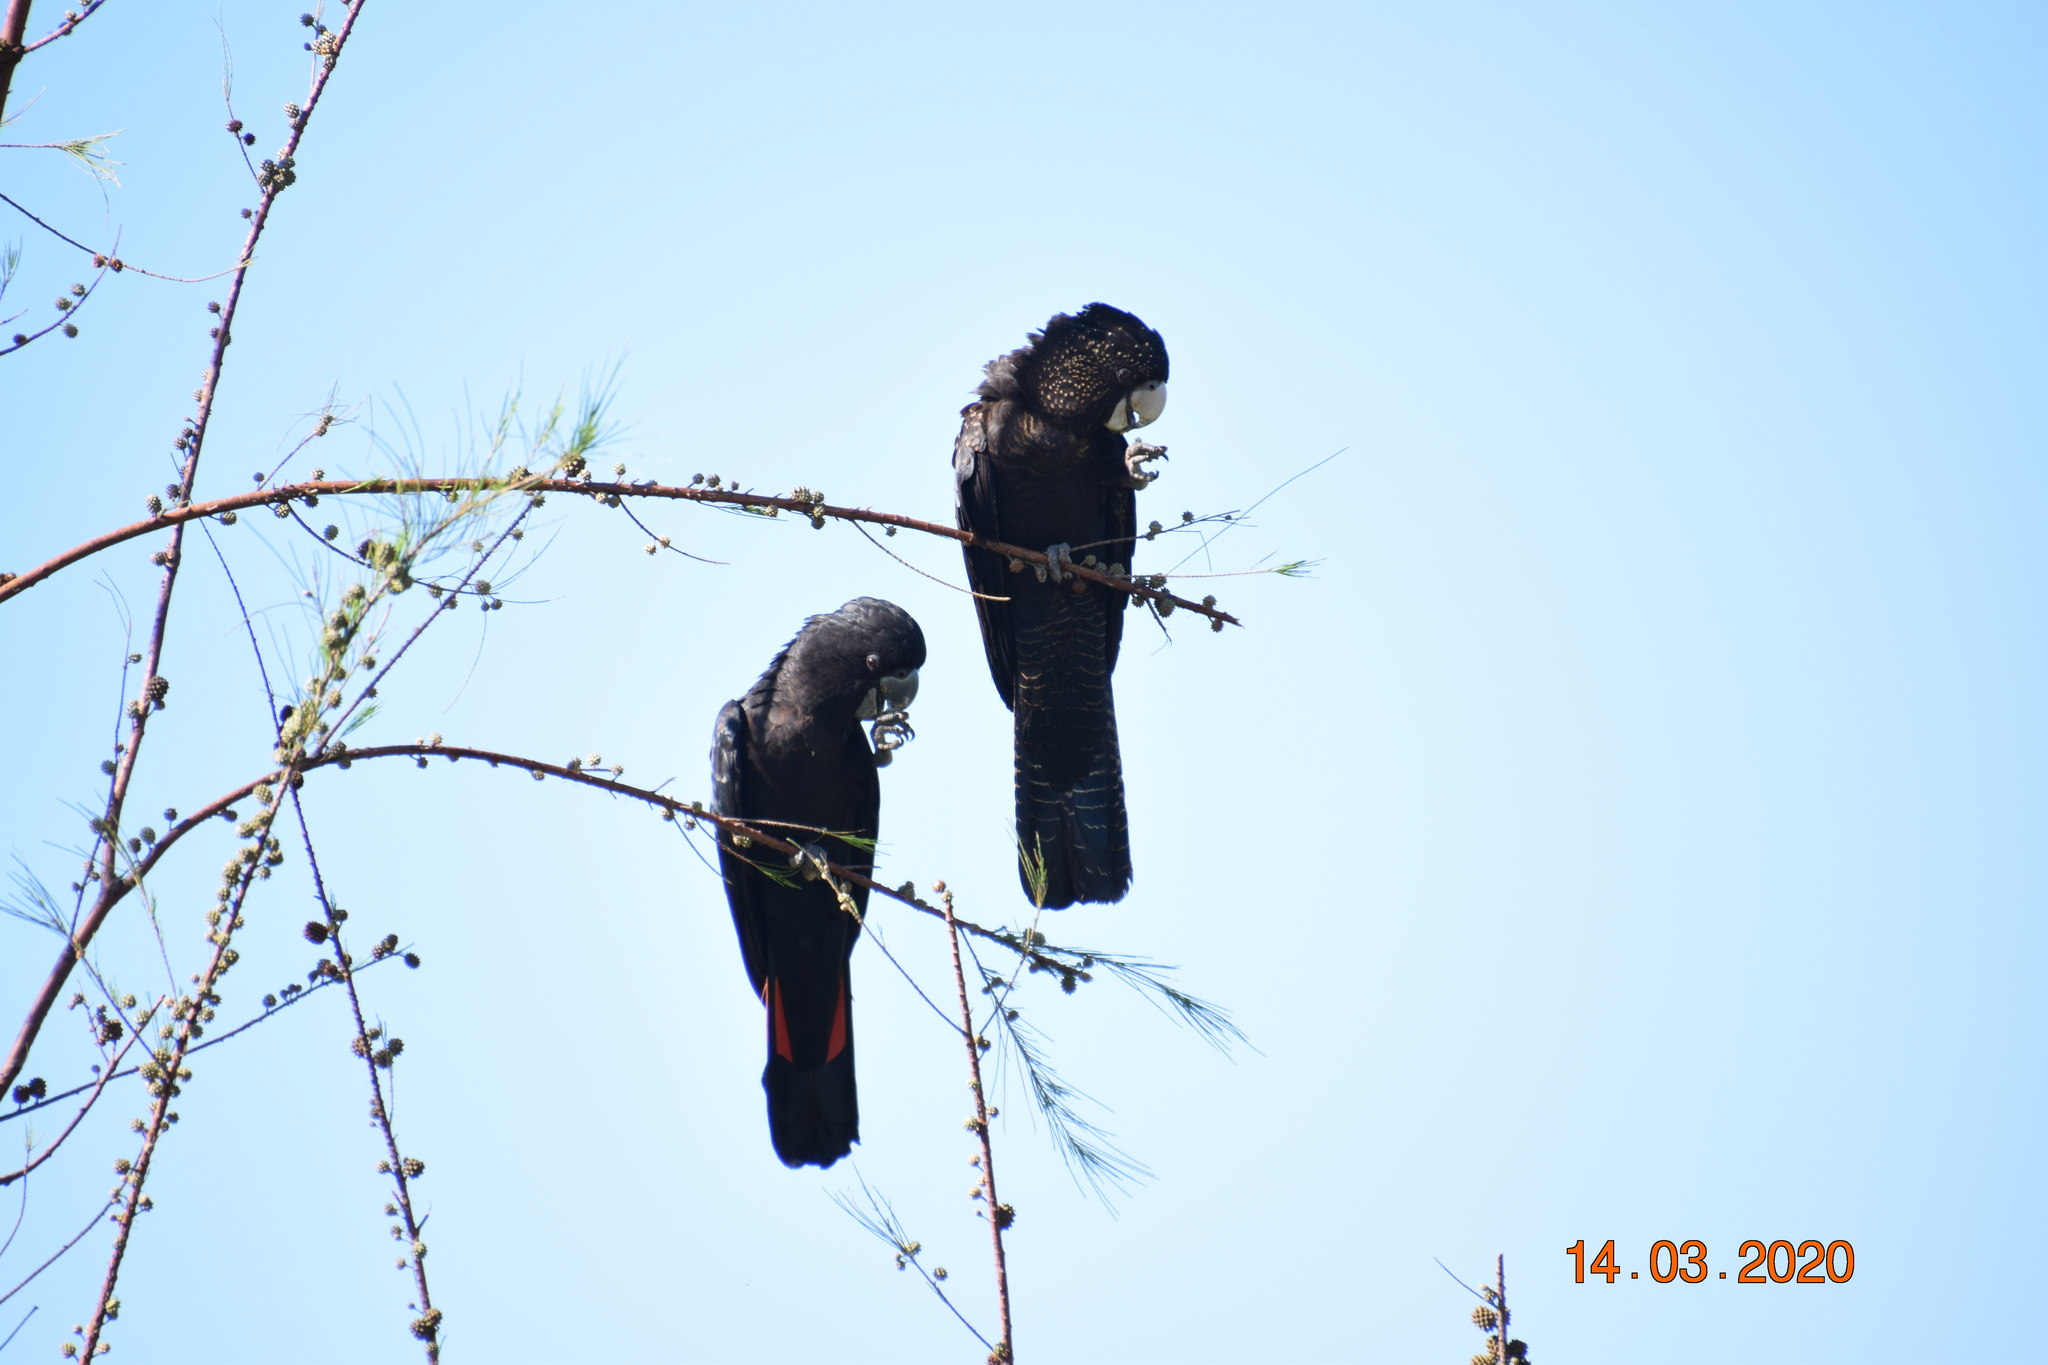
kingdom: Animalia
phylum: Chordata
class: Aves
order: Psittaciformes
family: Psittacidae
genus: Calyptorhynchus
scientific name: Calyptorhynchus banksii
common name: Red-tailed black cockatoo
